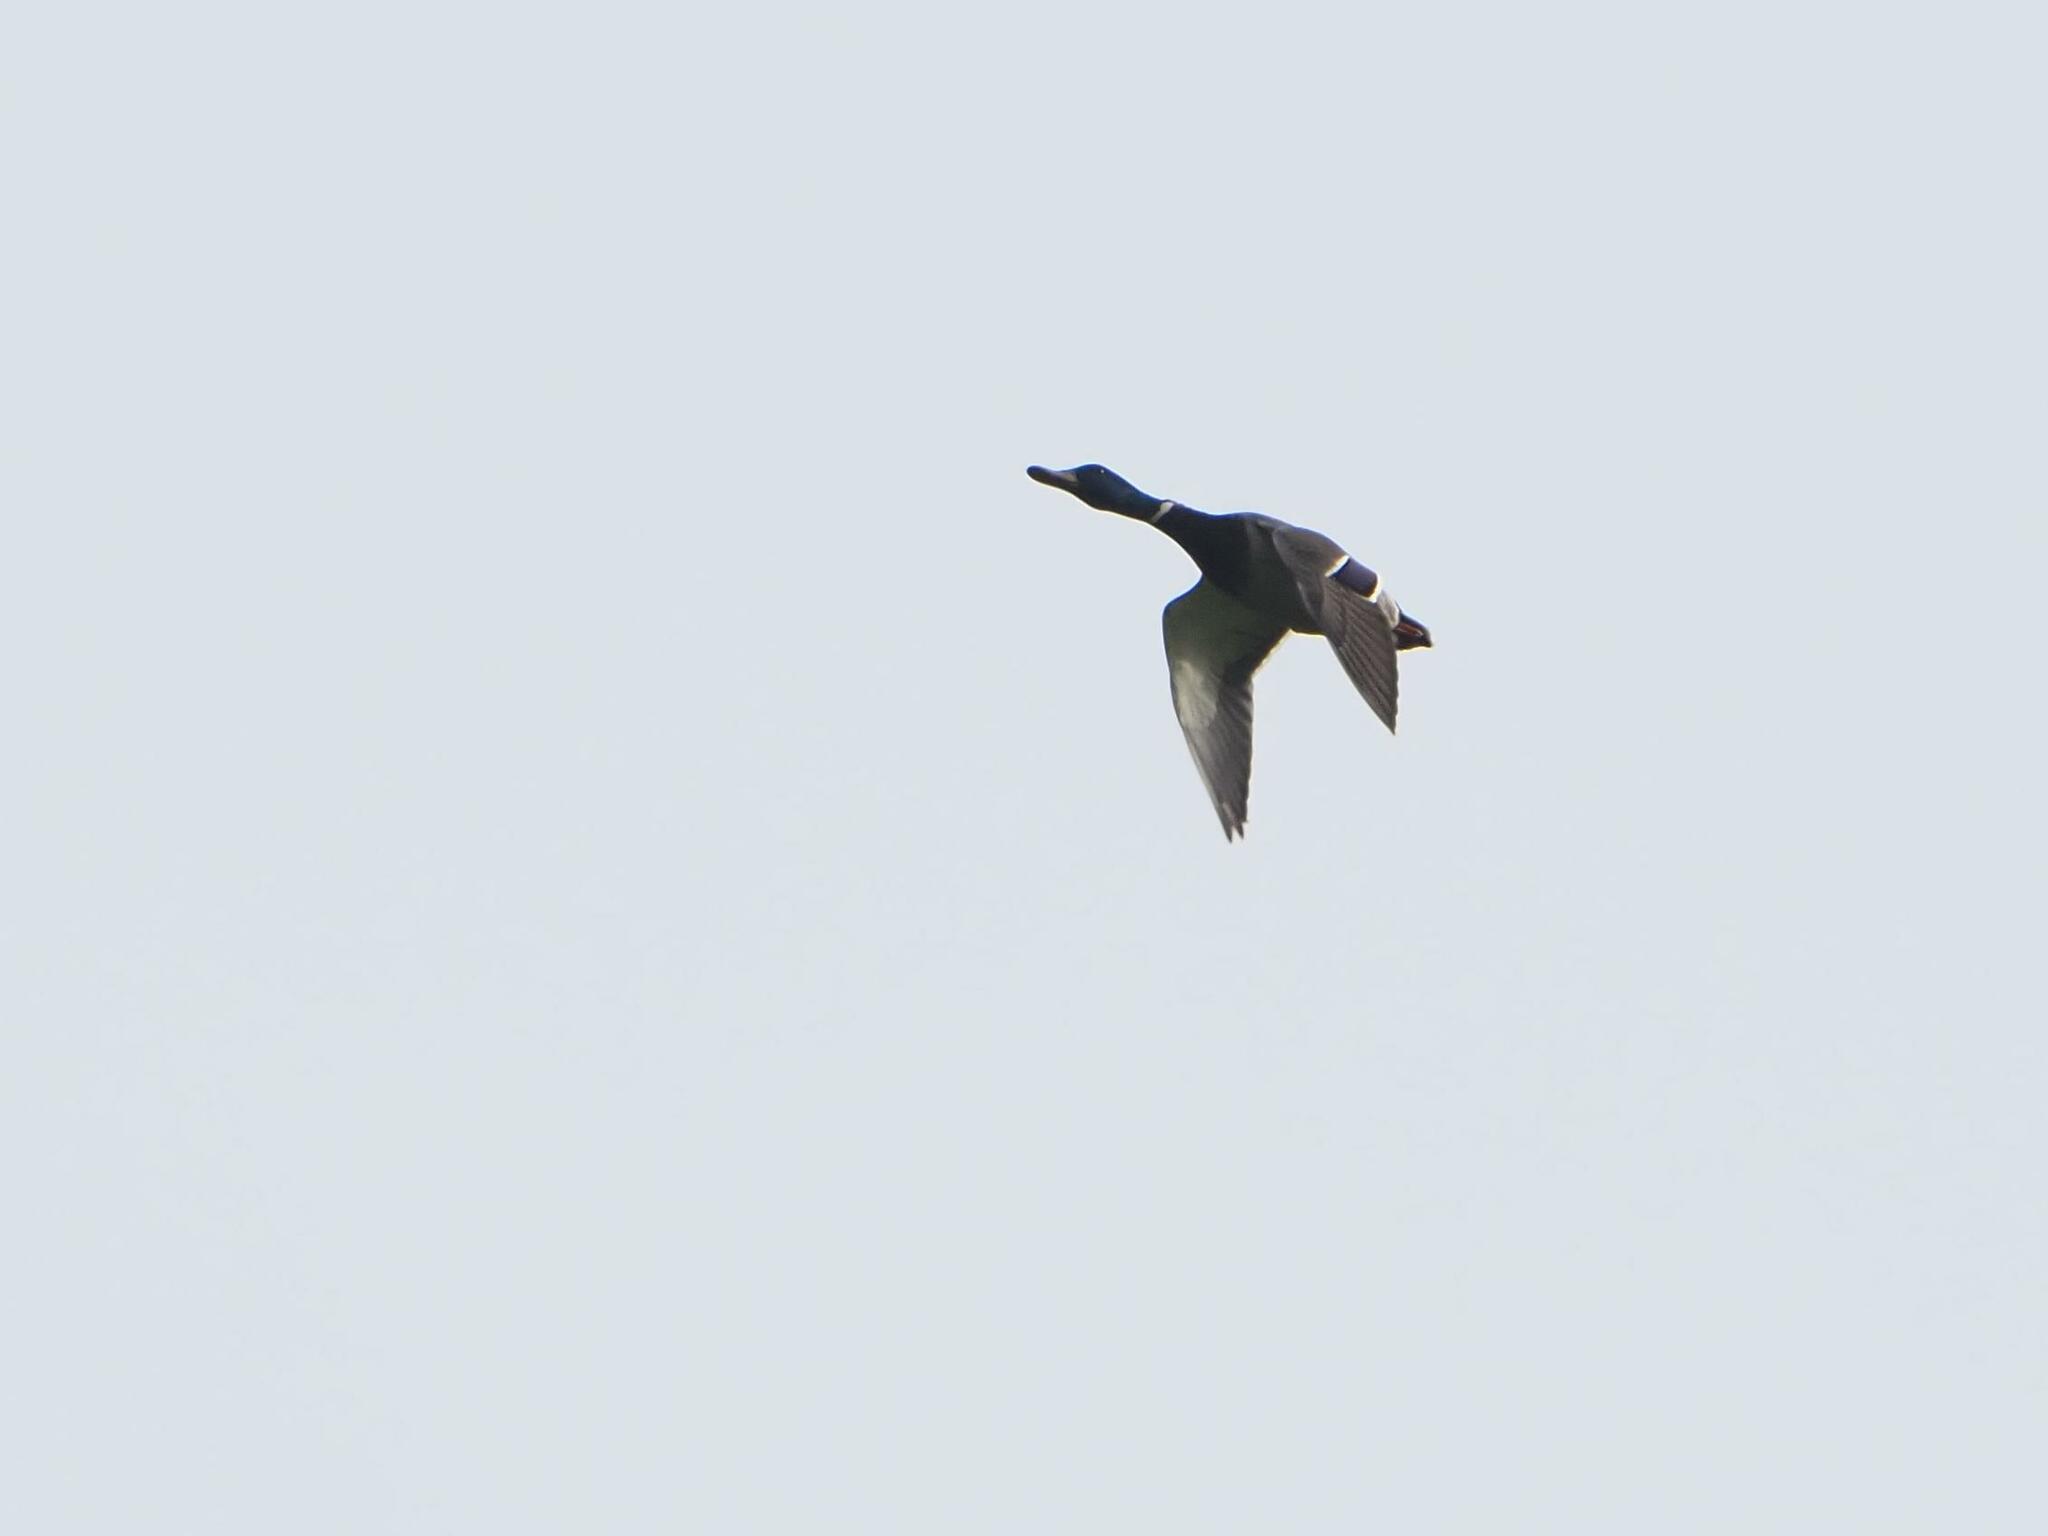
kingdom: Animalia
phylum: Chordata
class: Aves
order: Anseriformes
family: Anatidae
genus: Anas
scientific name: Anas platyrhynchos
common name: Mallard
